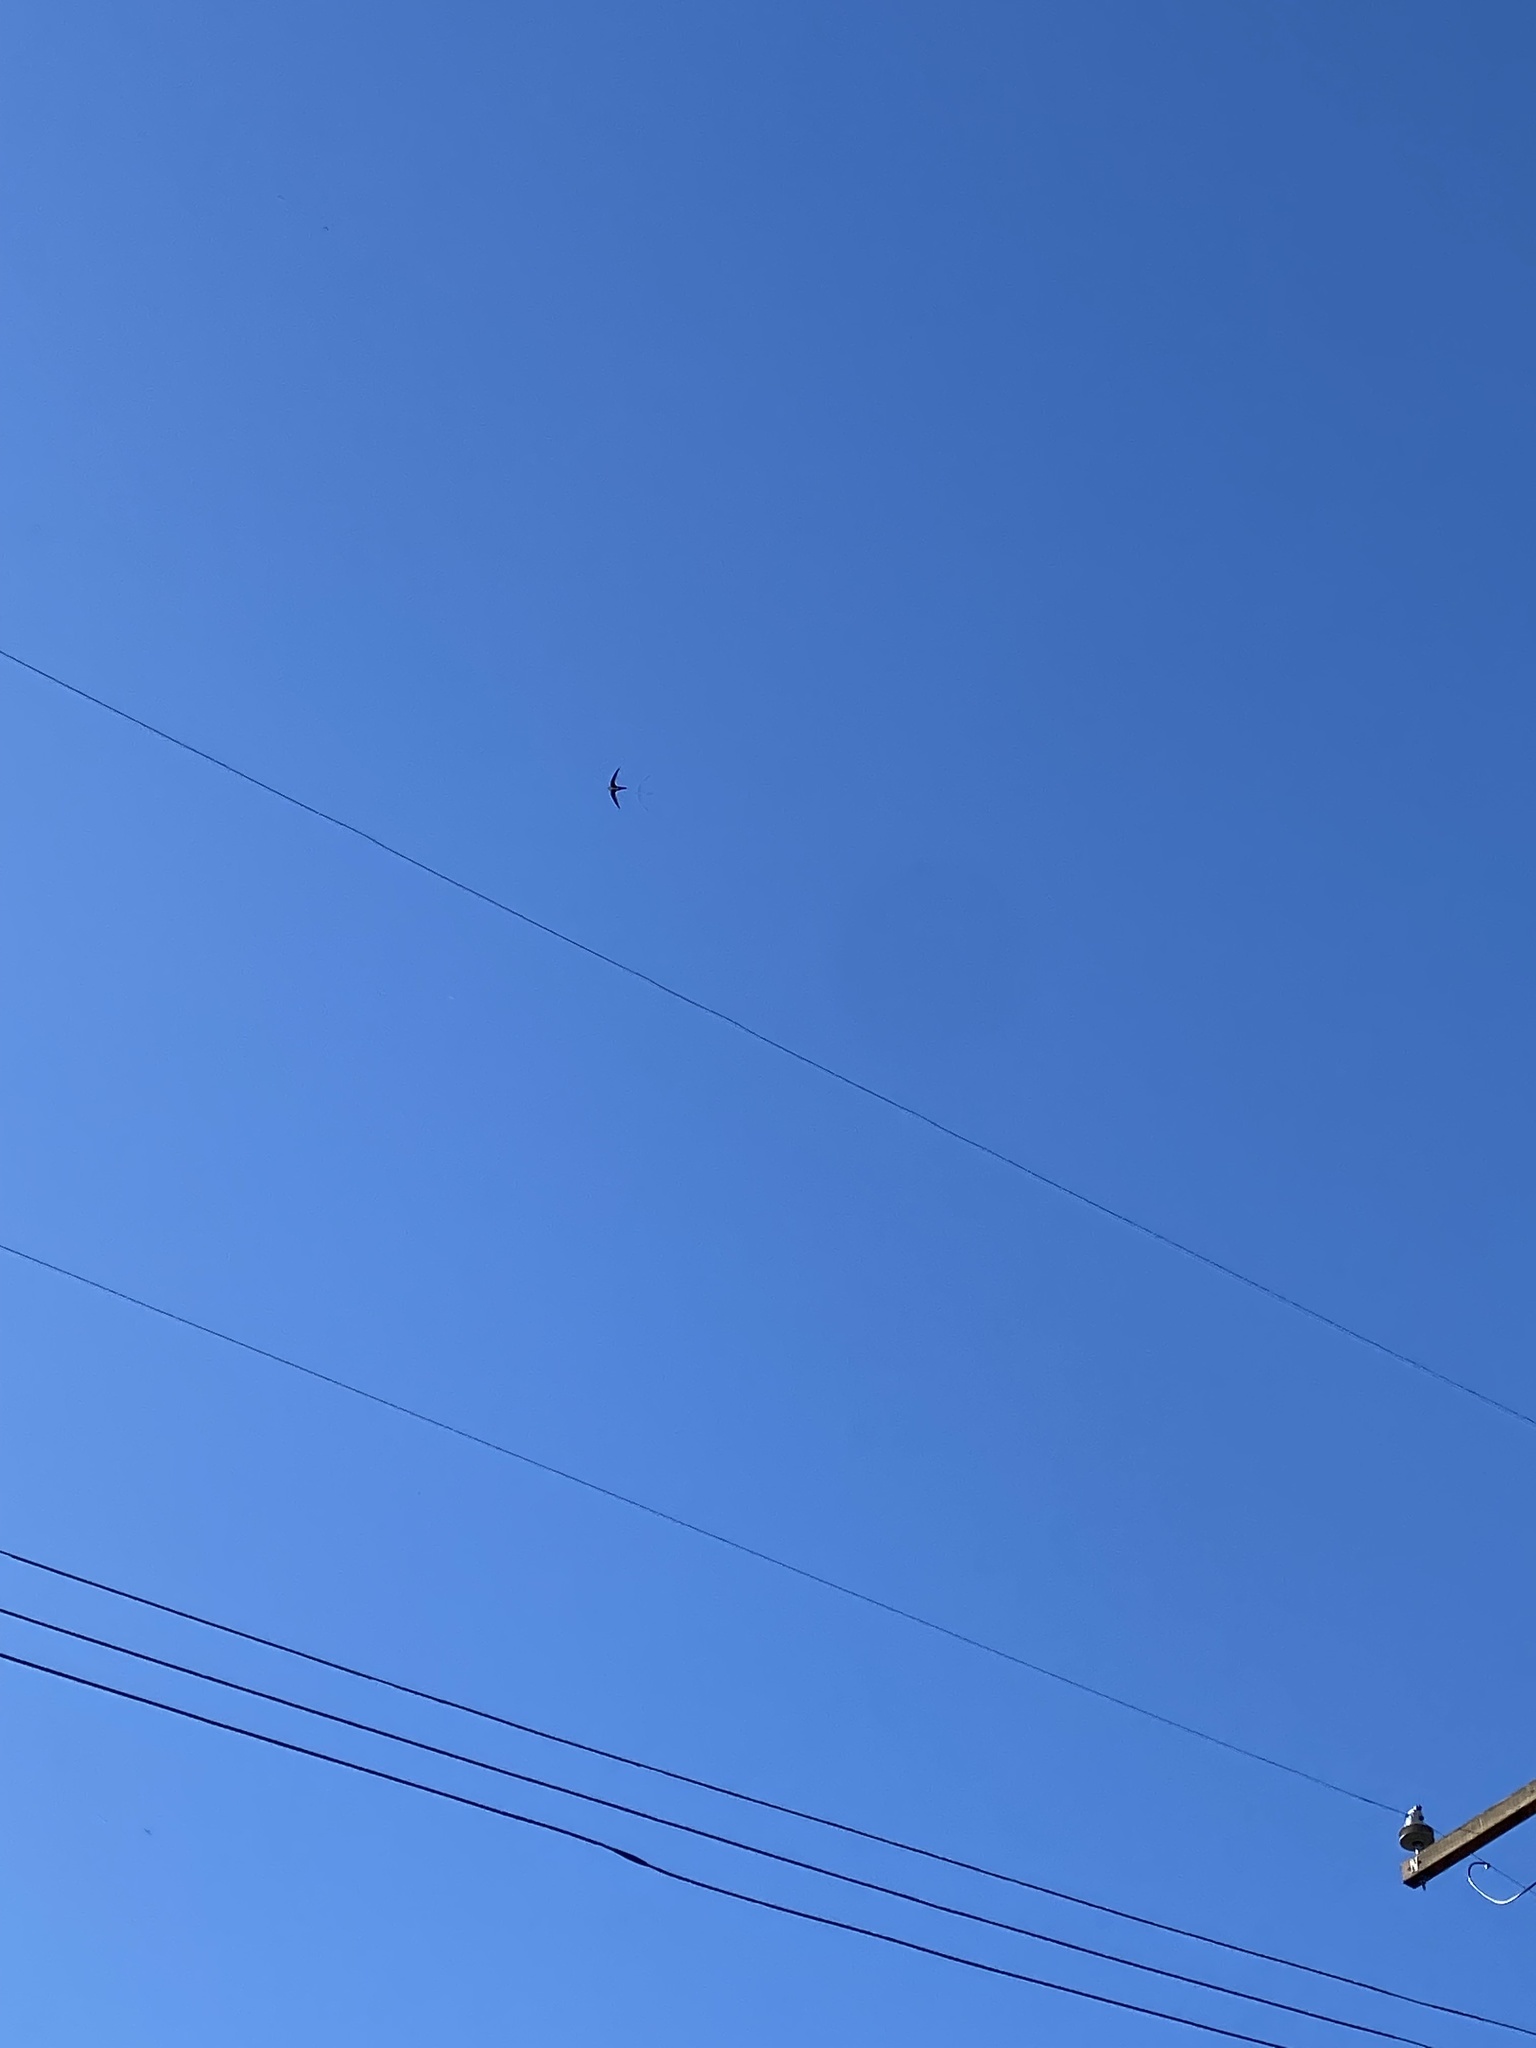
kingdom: Animalia
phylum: Chordata
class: Aves
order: Apodiformes
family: Apodidae
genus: Aeronautes
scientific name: Aeronautes saxatalis
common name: White-throated swift
